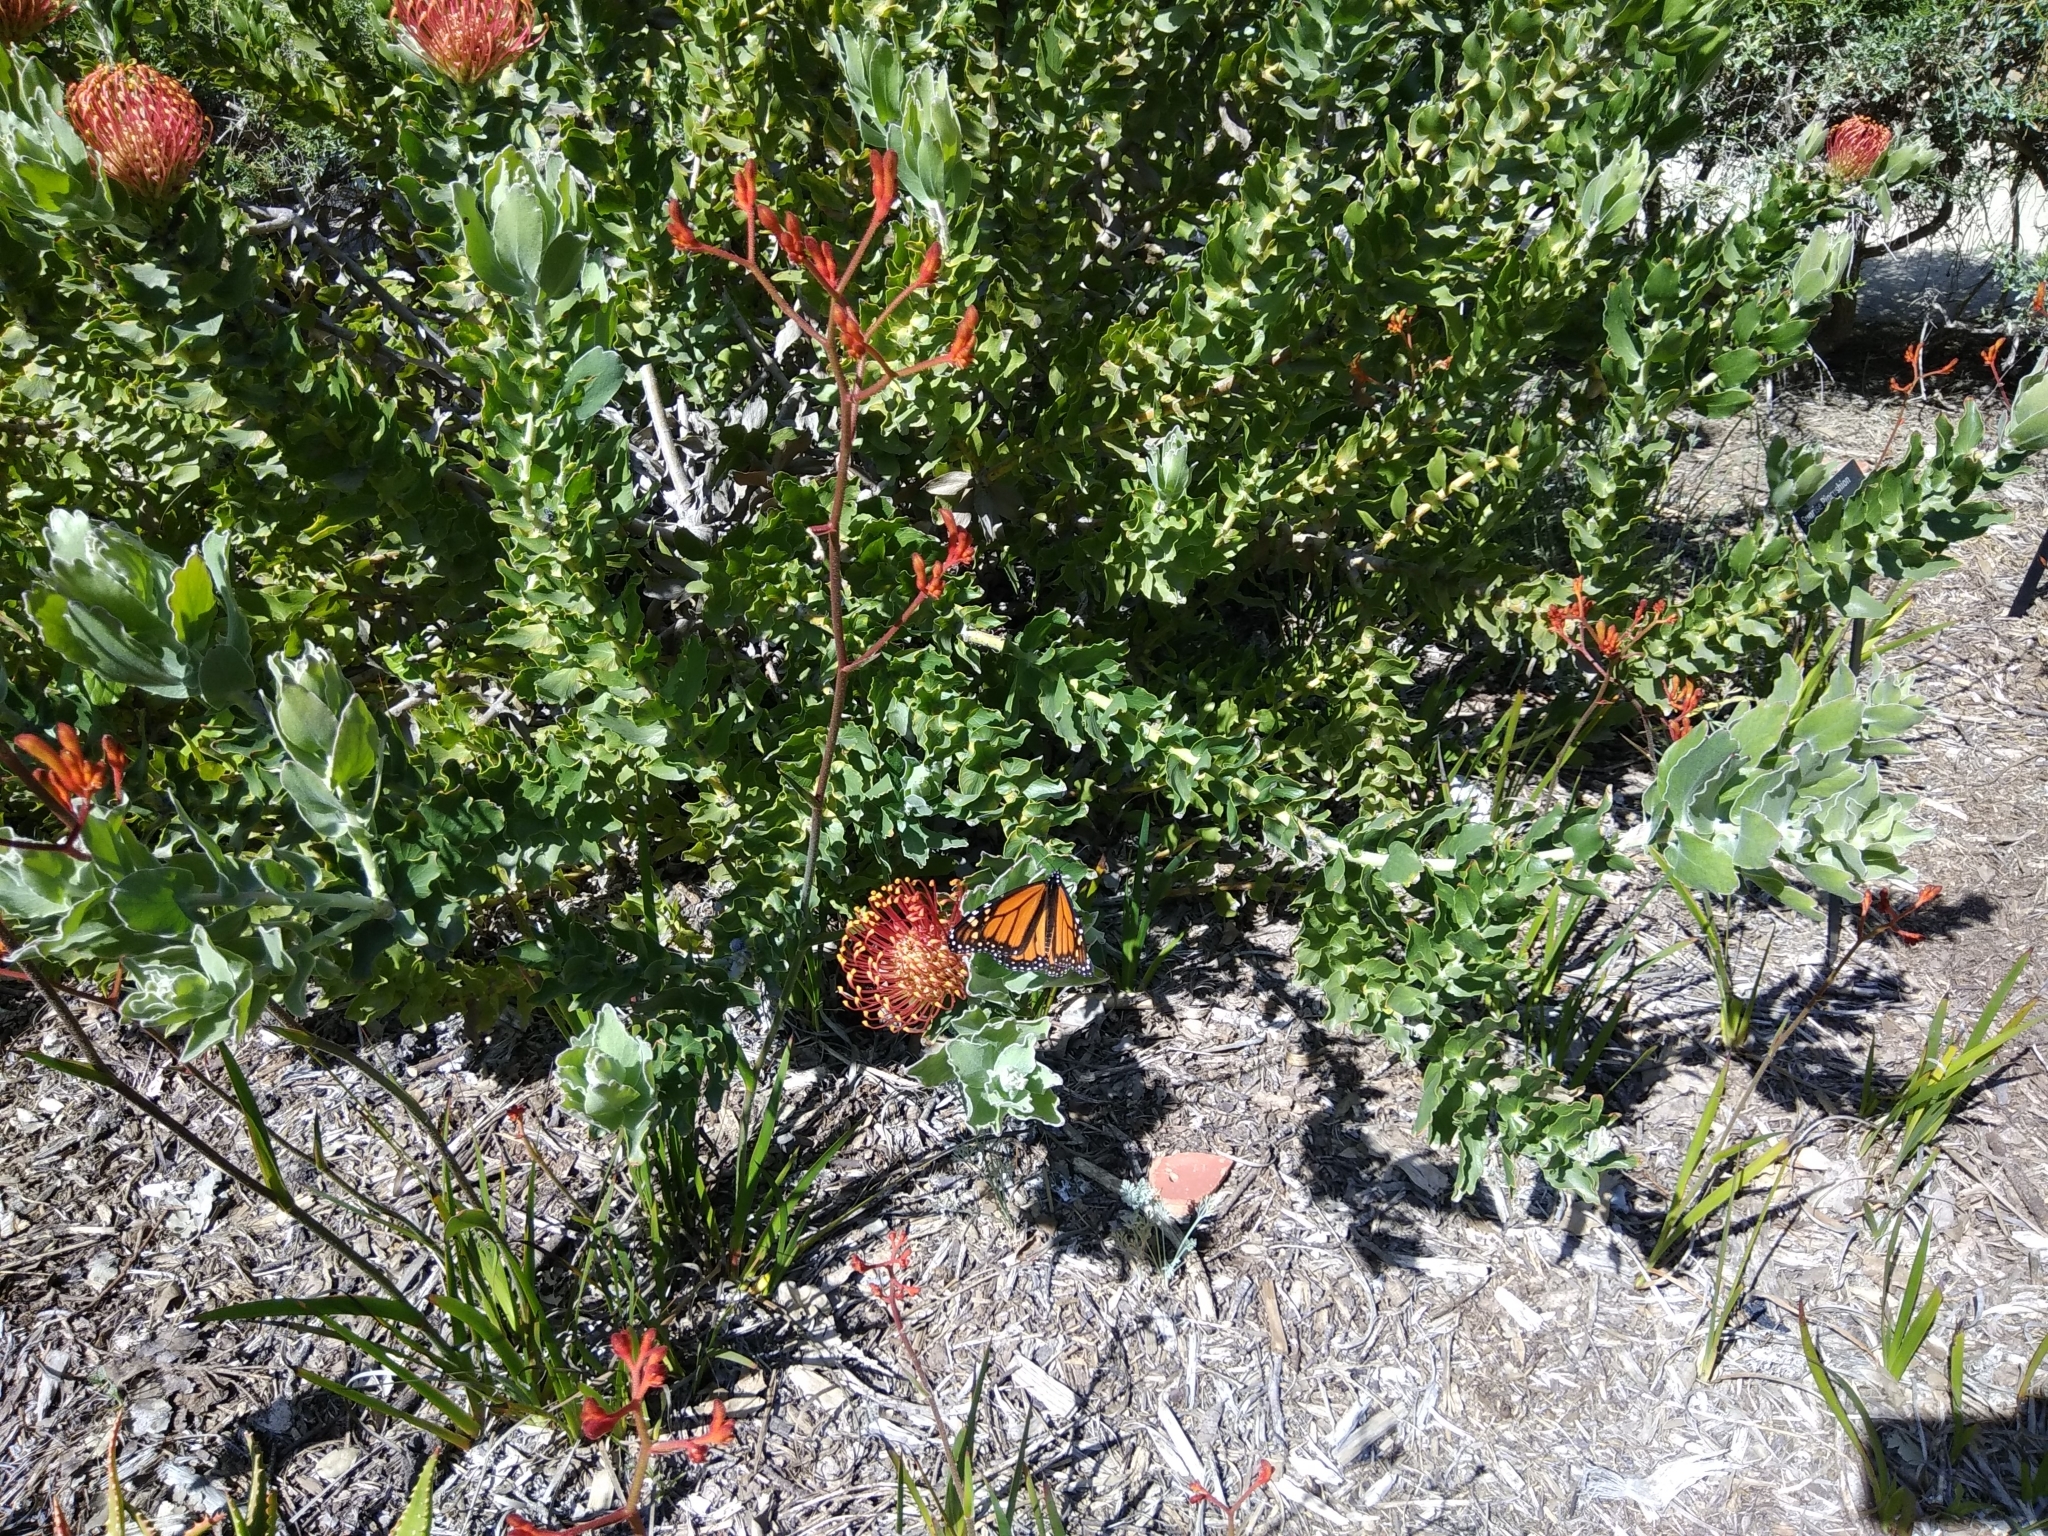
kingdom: Animalia
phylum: Arthropoda
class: Insecta
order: Lepidoptera
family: Nymphalidae
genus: Danaus
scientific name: Danaus plexippus
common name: Monarch
